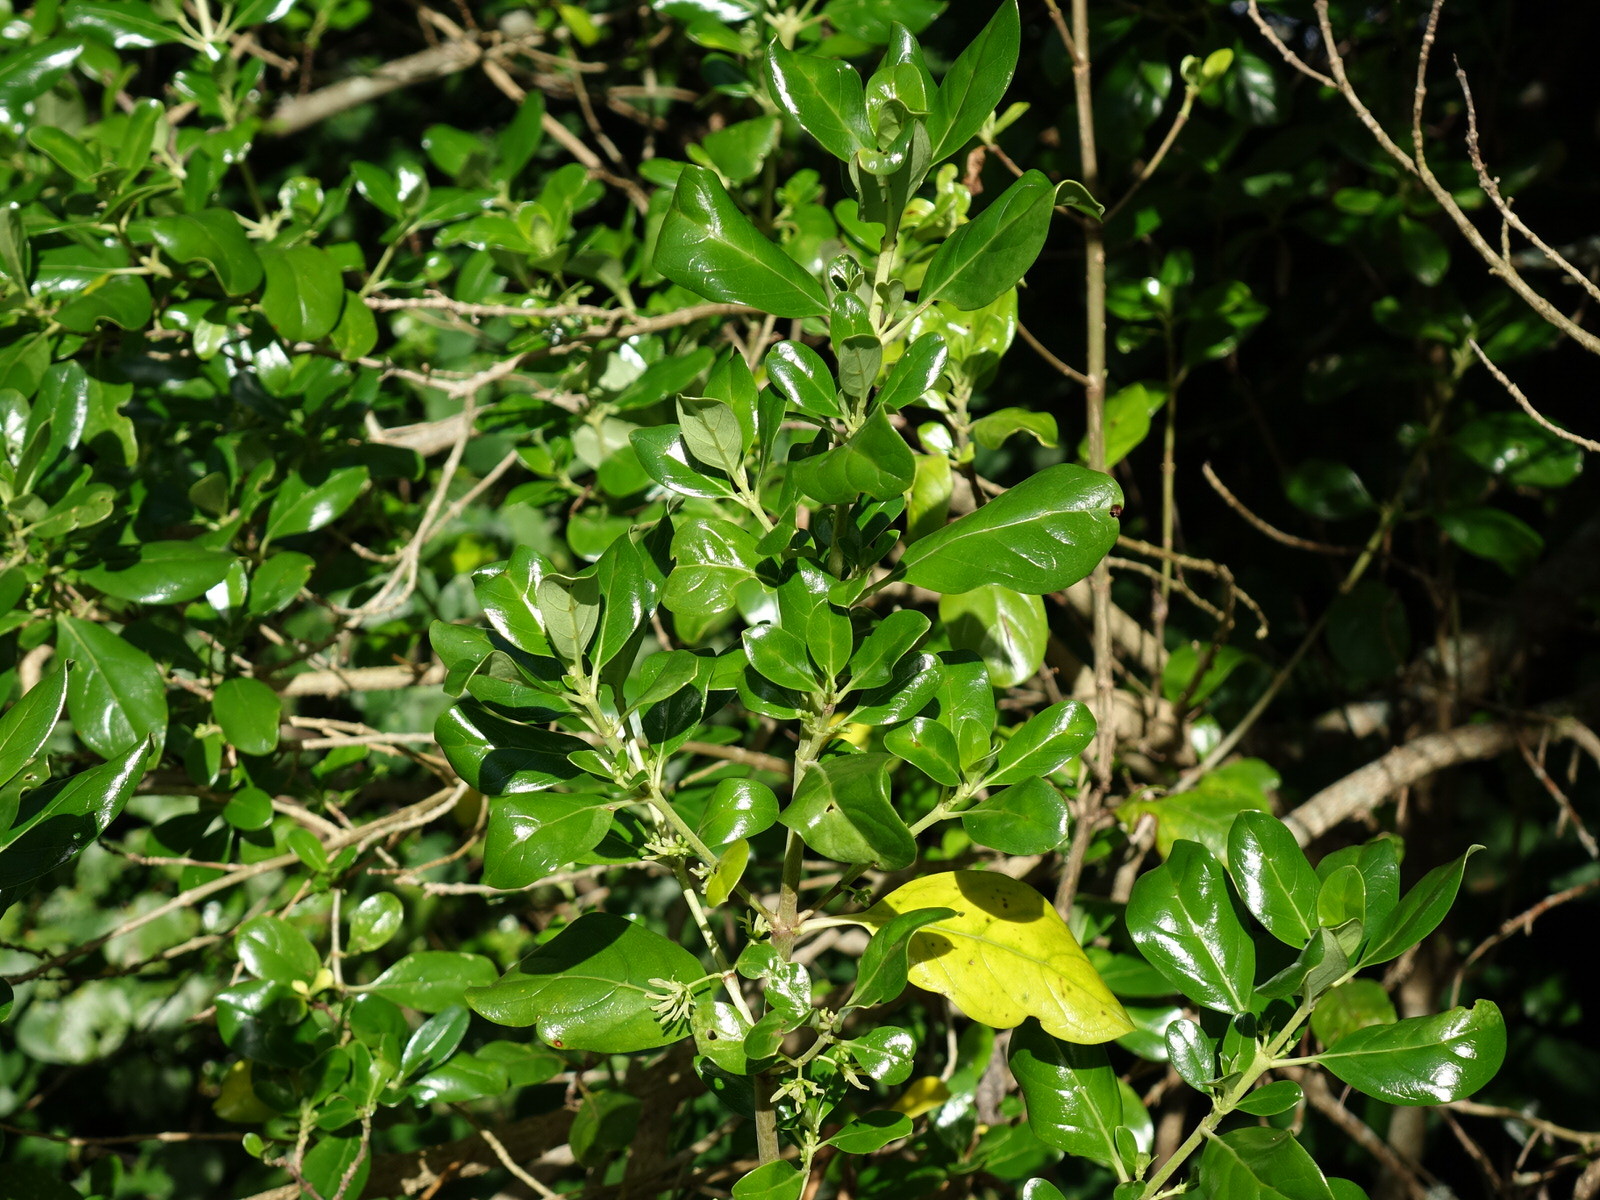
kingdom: Plantae
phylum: Tracheophyta
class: Magnoliopsida
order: Gentianales
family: Rubiaceae
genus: Coprosma
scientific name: Coprosma repens
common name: Tree bedstraw
